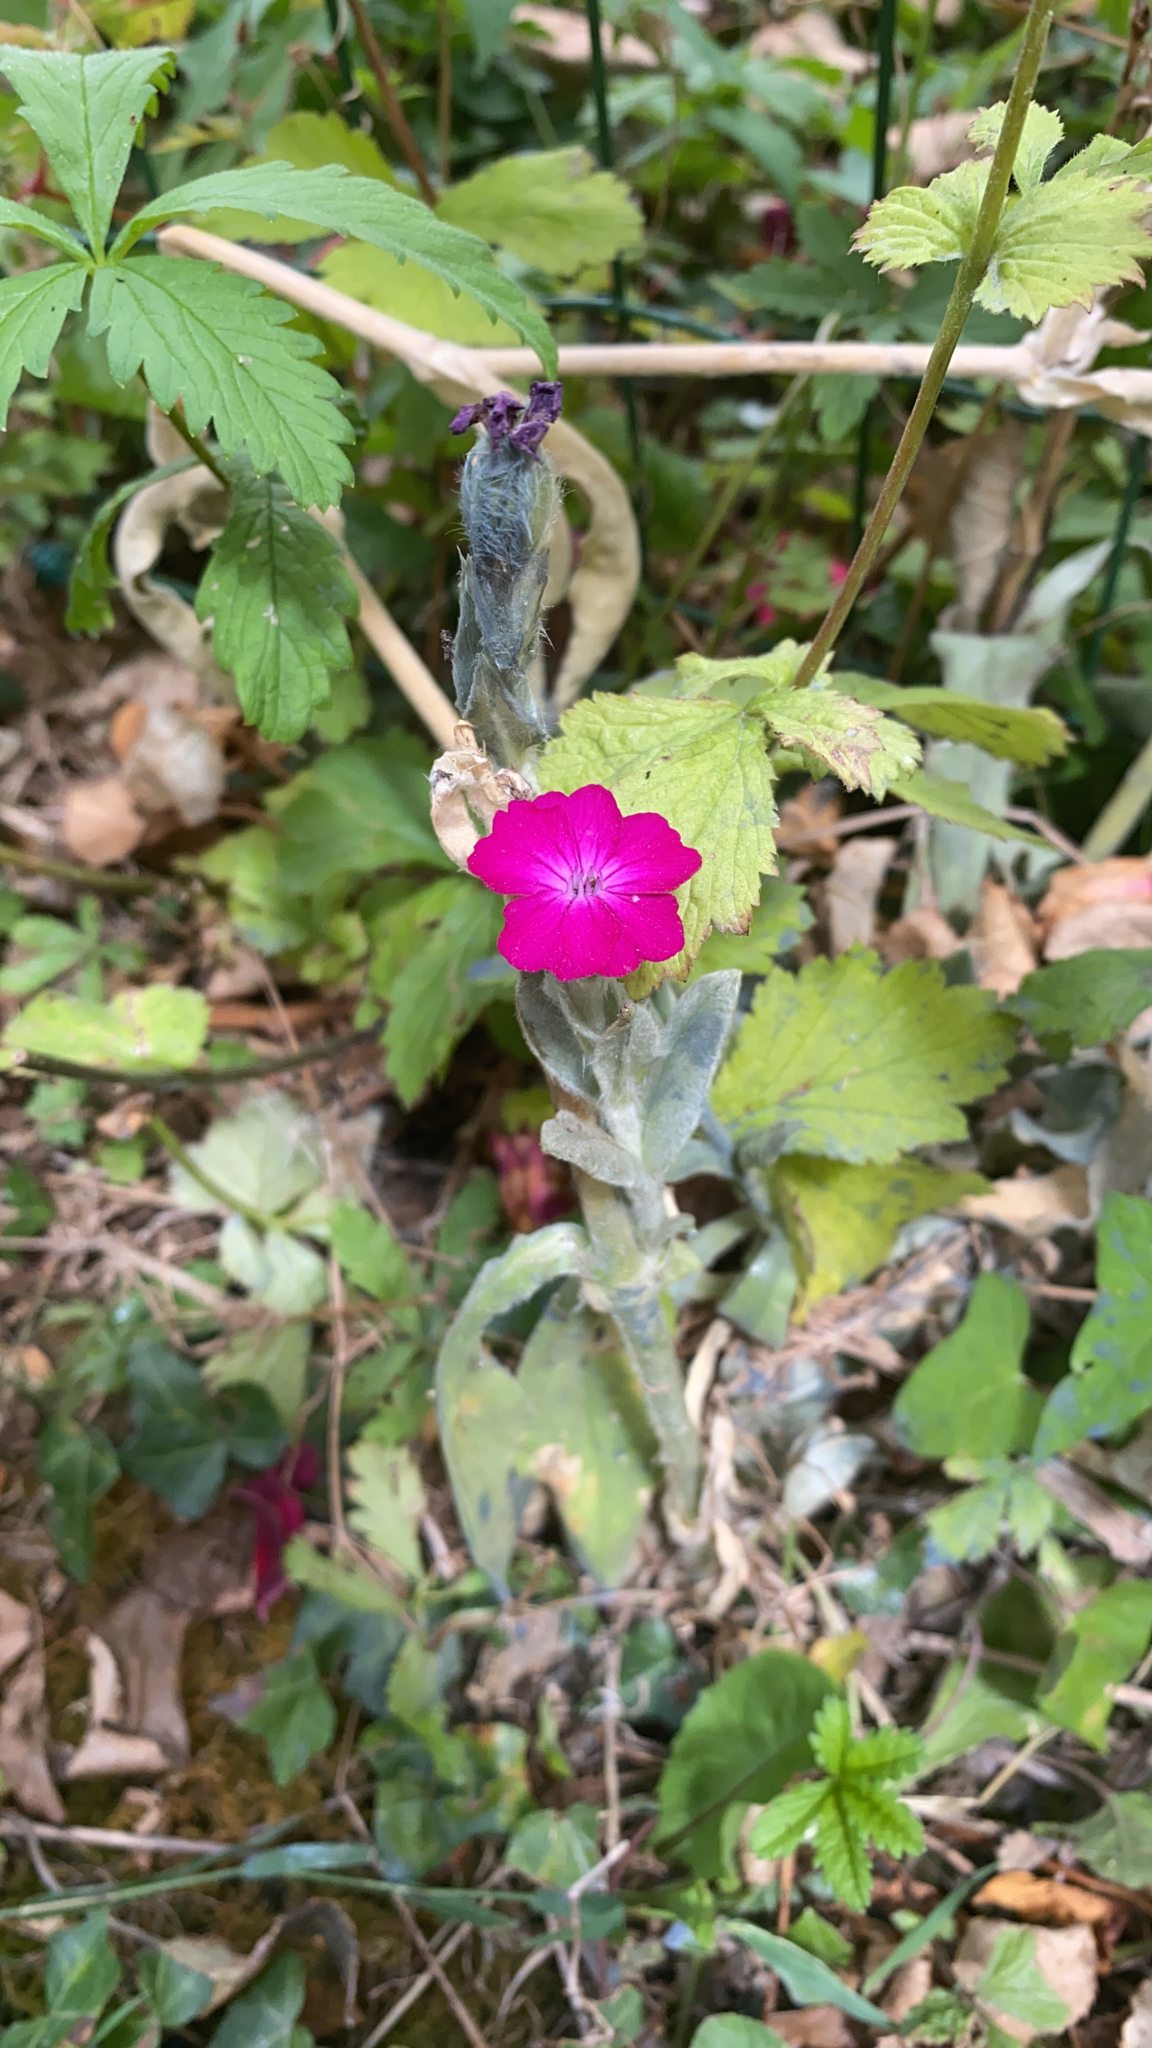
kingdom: Plantae
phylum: Tracheophyta
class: Magnoliopsida
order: Caryophyllales
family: Caryophyllaceae
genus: Silene
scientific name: Silene coronaria
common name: Rose campion
